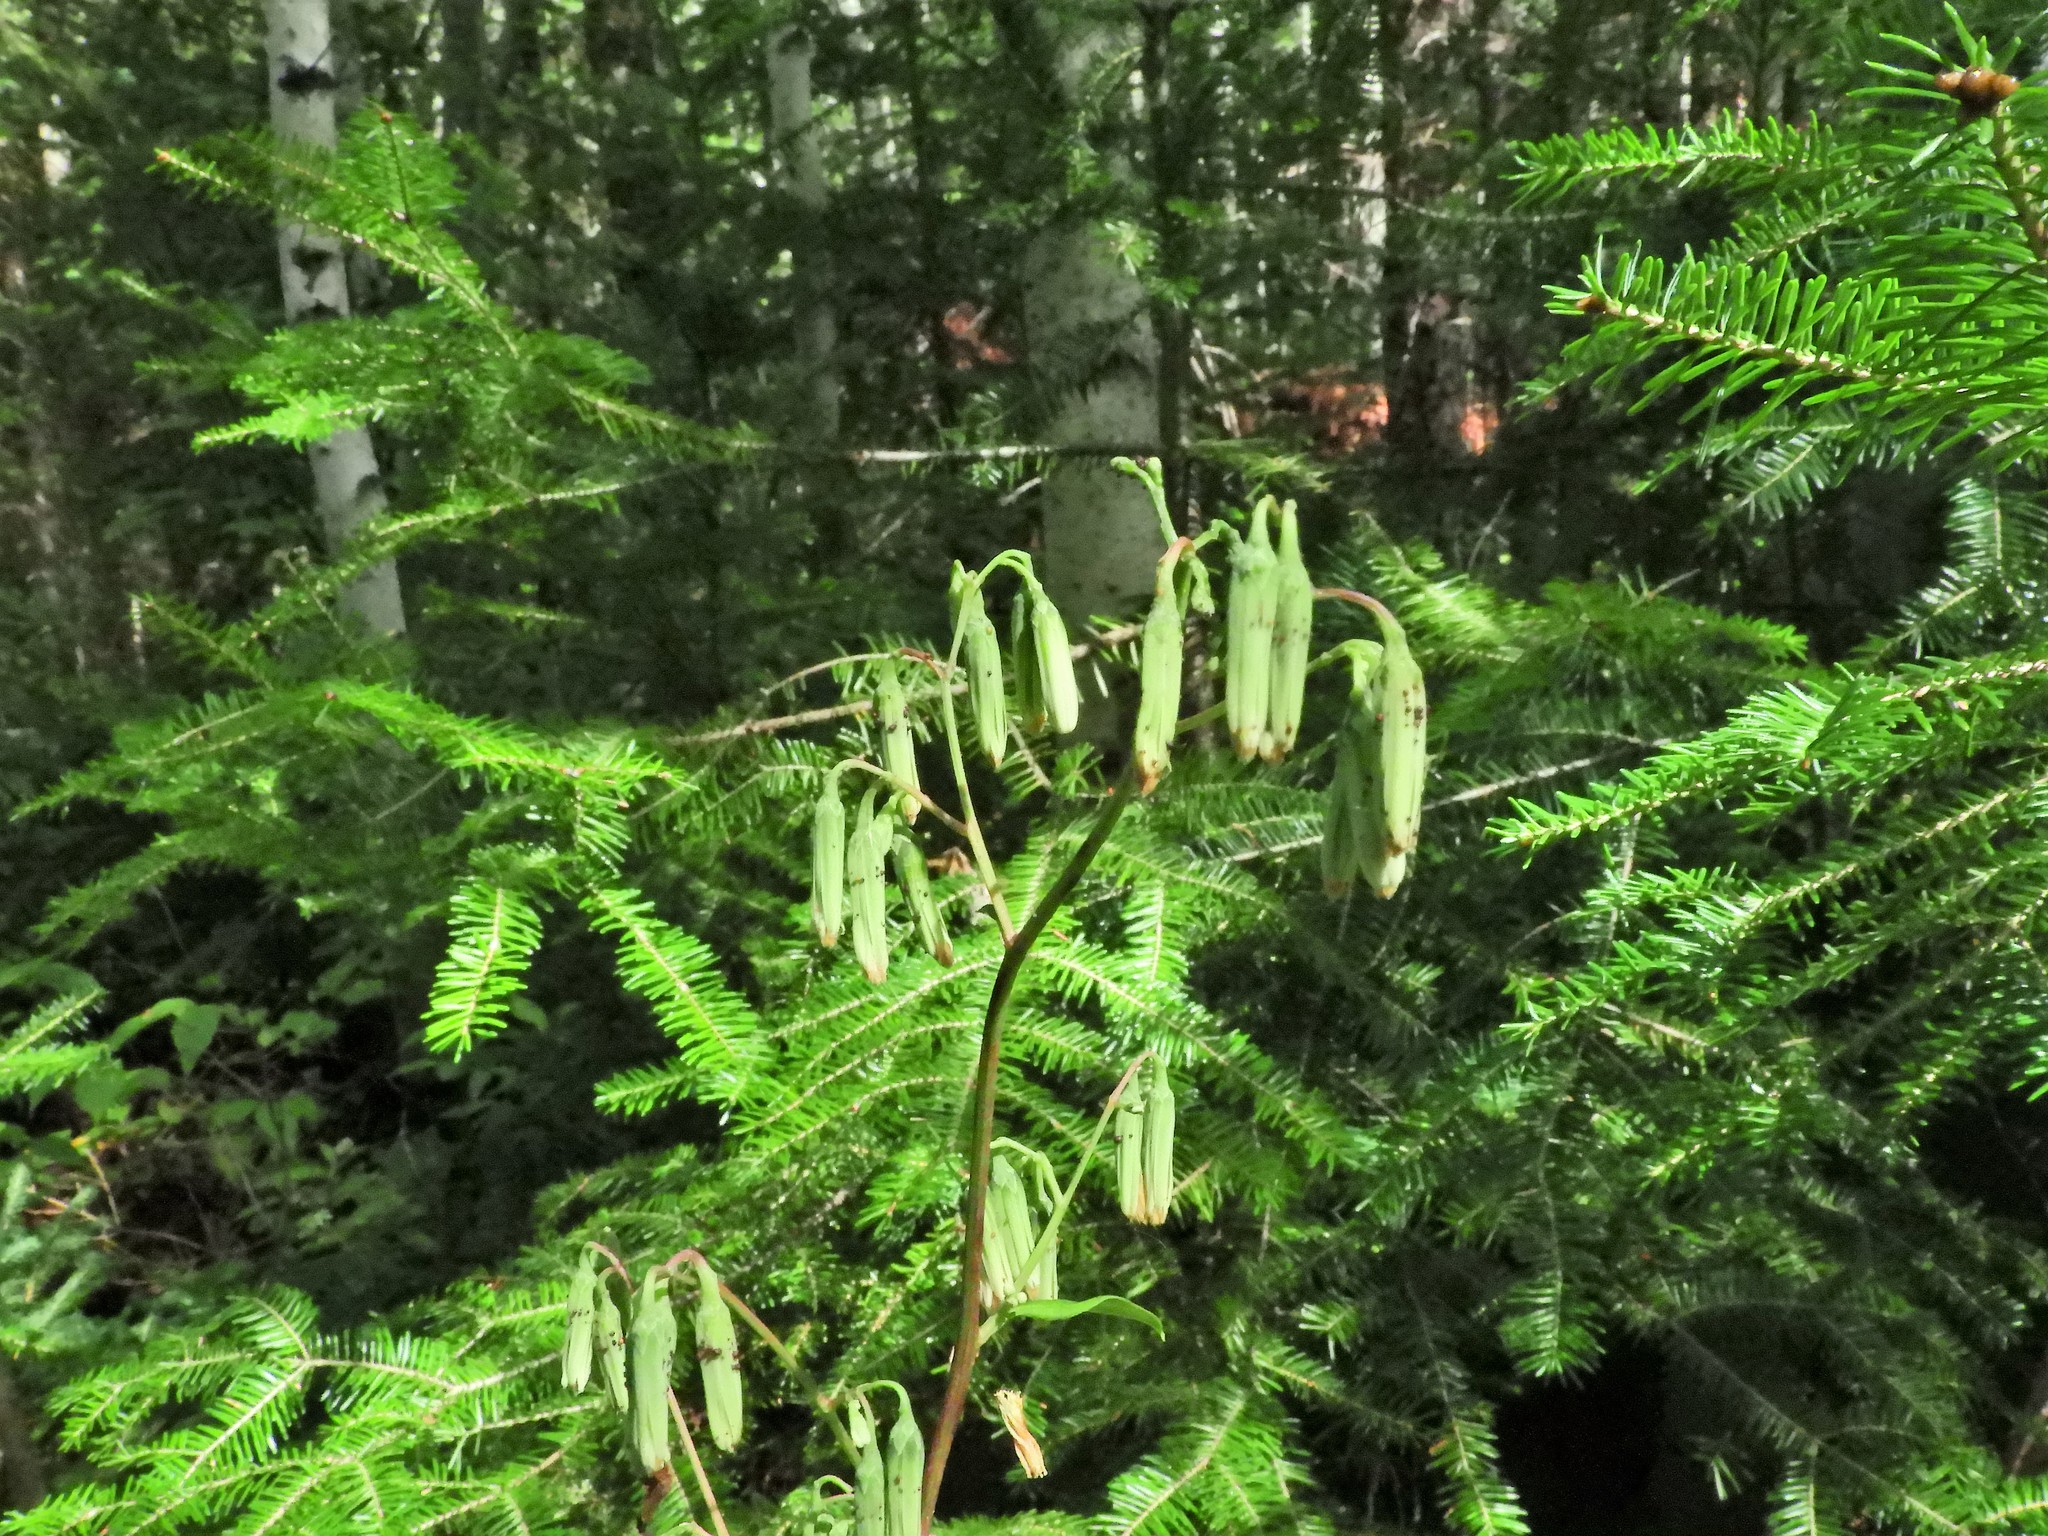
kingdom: Plantae
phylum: Tracheophyta
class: Magnoliopsida
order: Asterales
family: Asteraceae
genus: Nabalus
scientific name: Nabalus trifoliolatus
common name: Gall-of-the-earth
